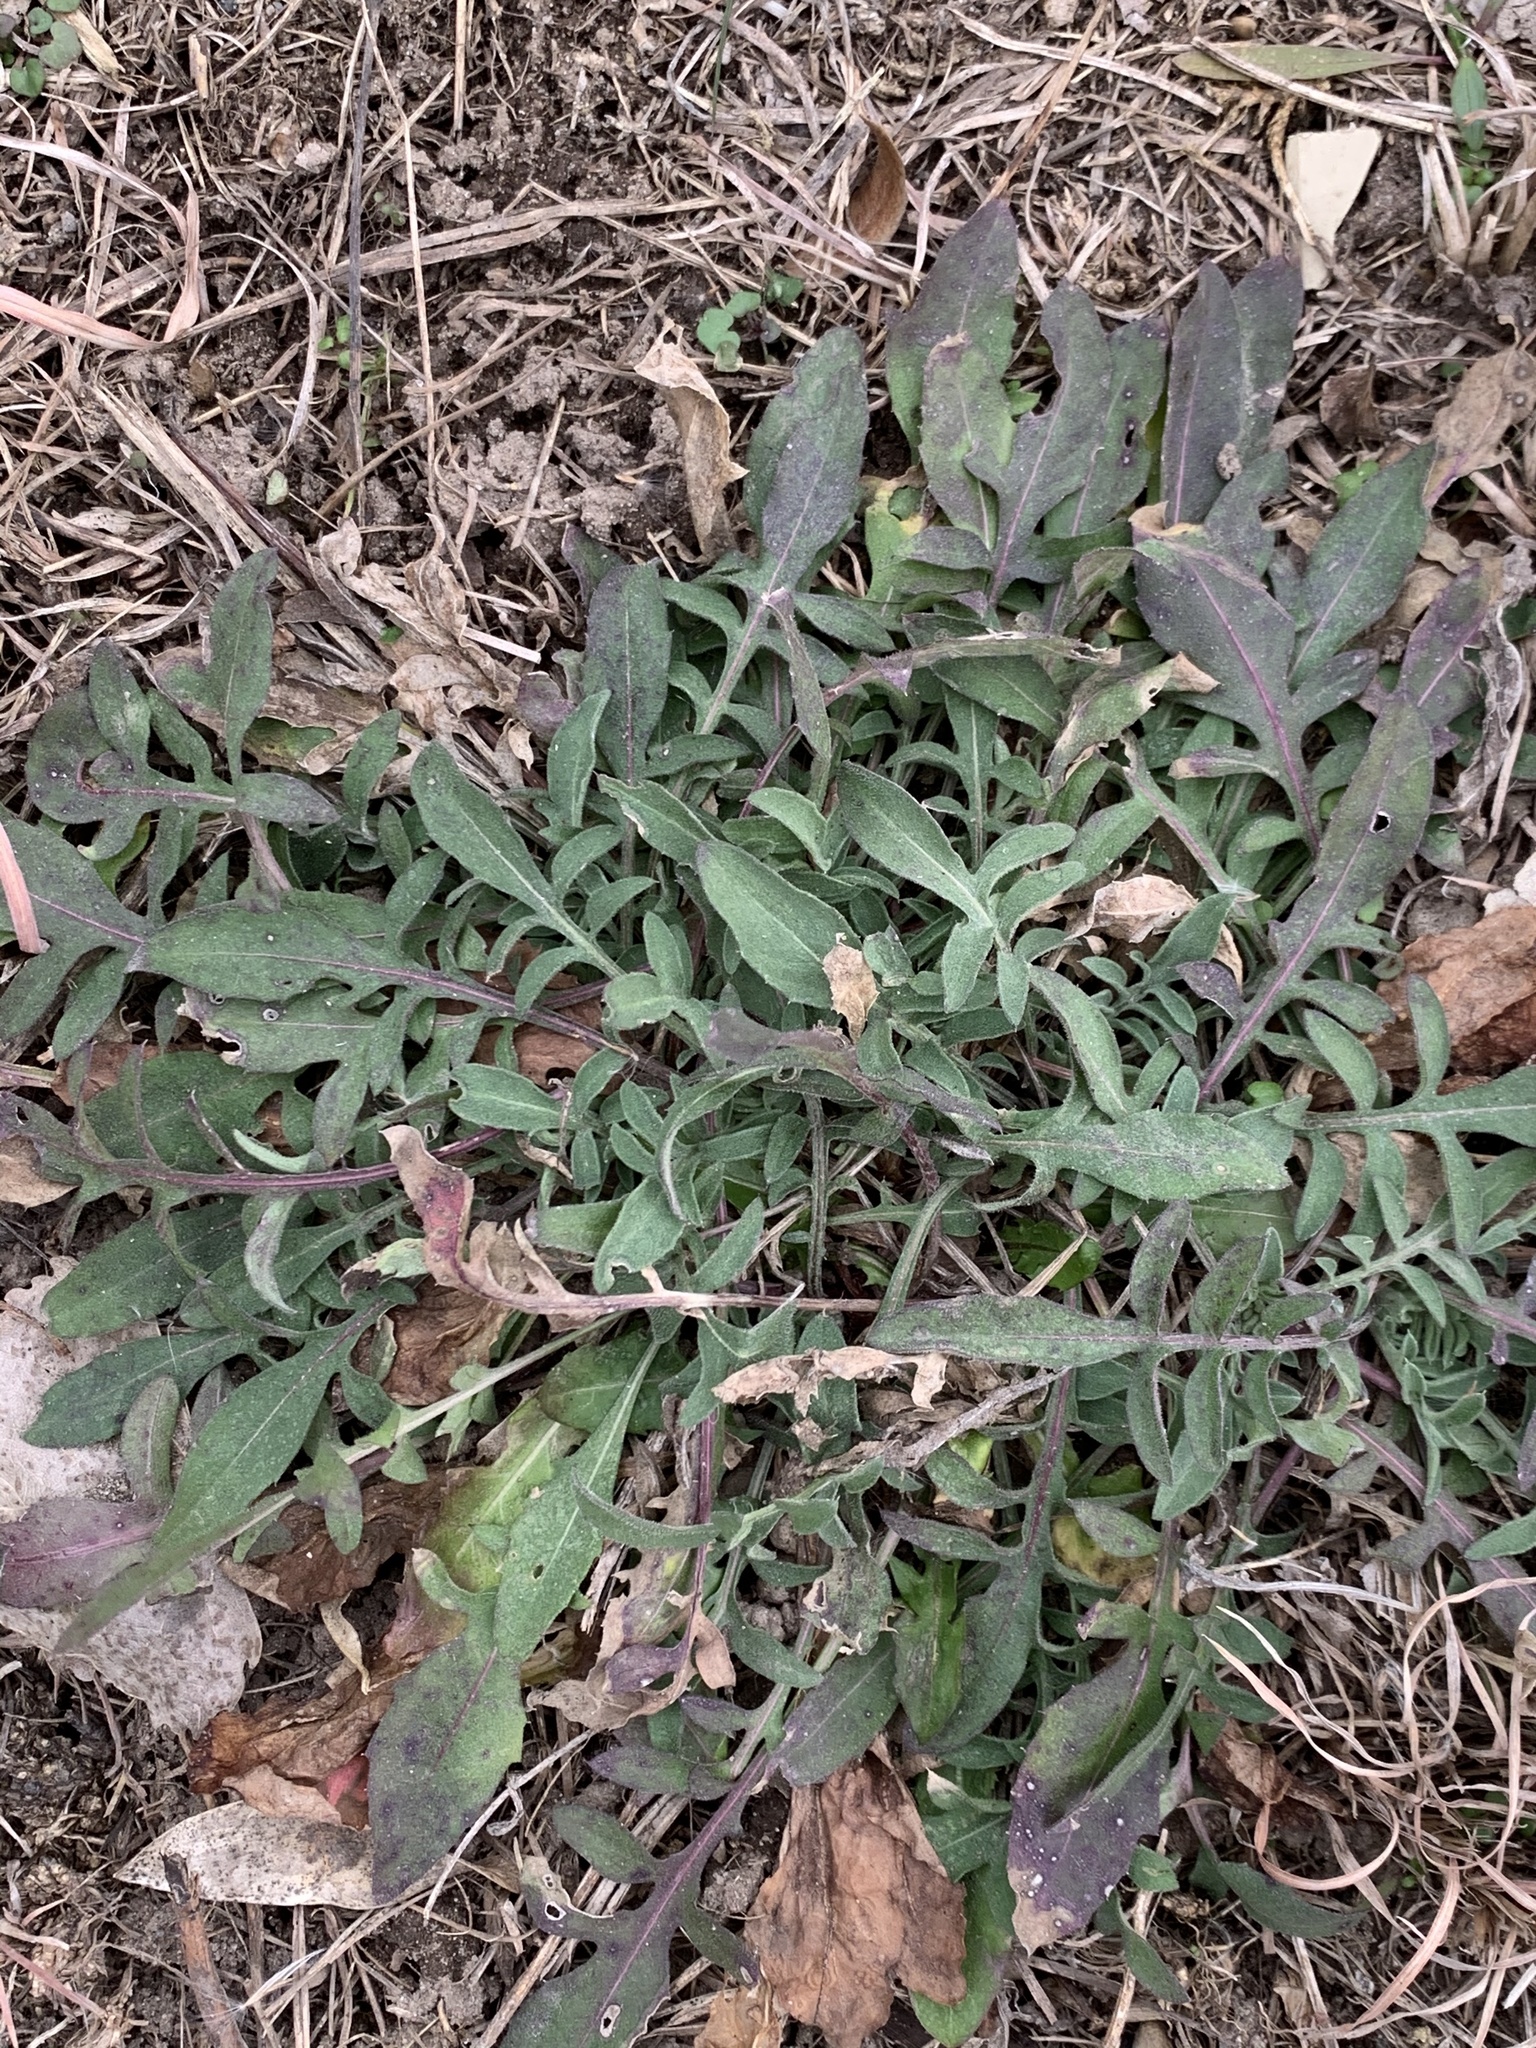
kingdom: Plantae
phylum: Tracheophyta
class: Magnoliopsida
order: Asterales
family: Asteraceae
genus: Centaurea
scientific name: Centaurea stoebe
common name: Spotted knapweed
